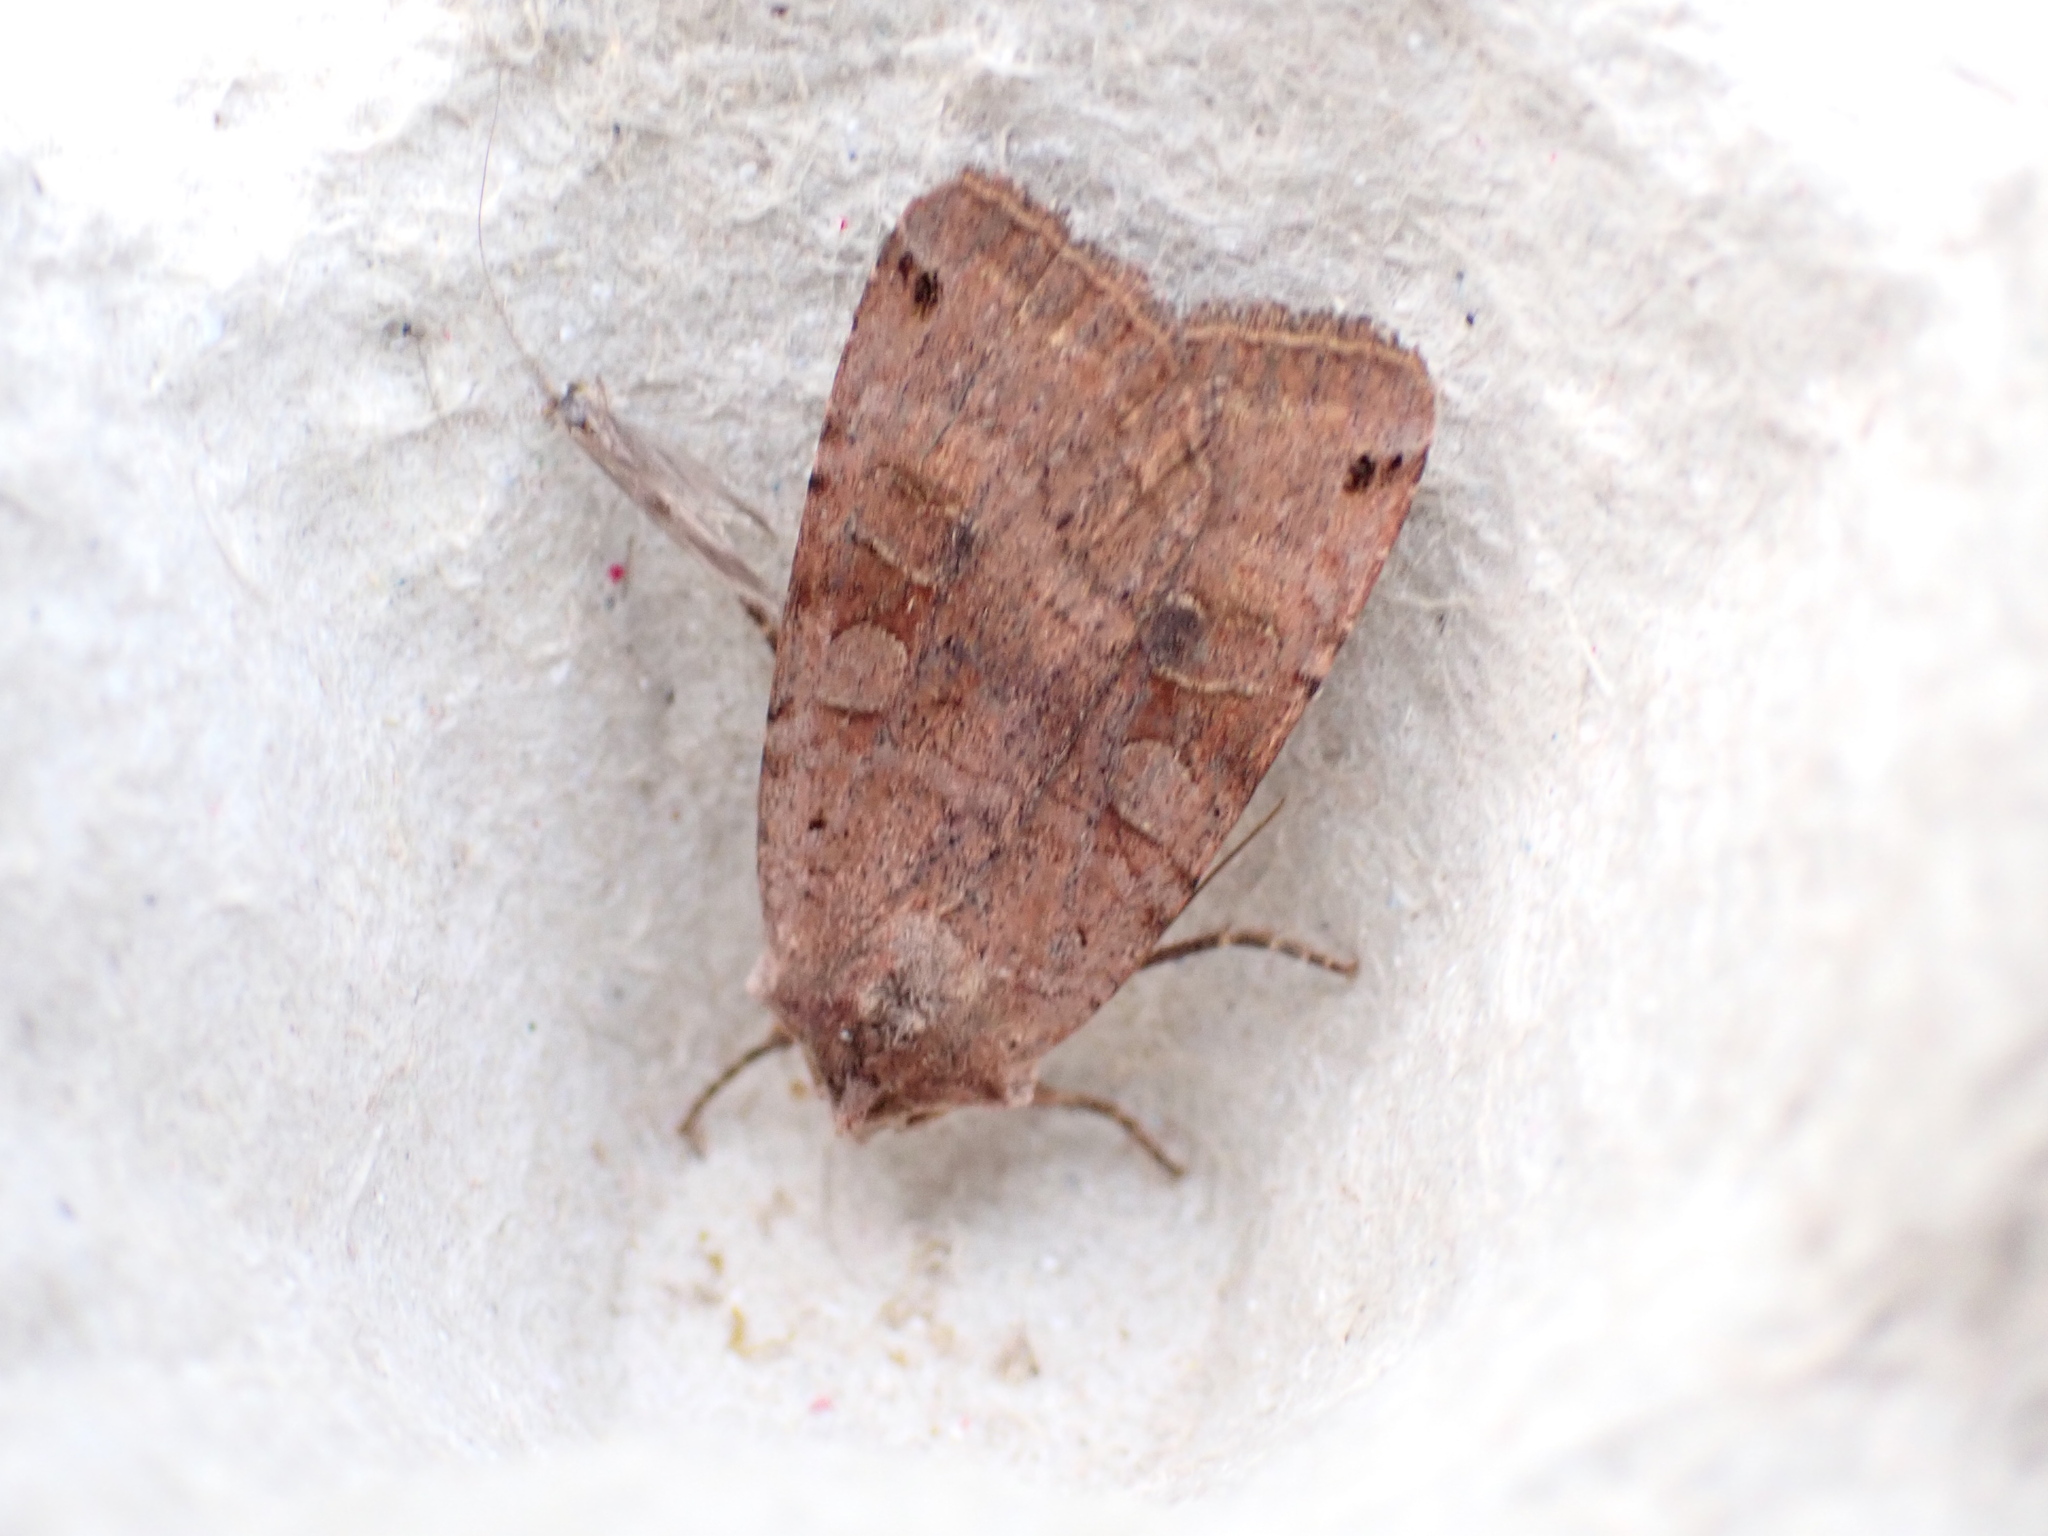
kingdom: Animalia
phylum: Arthropoda
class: Insecta
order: Lepidoptera
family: Noctuidae
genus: Xestia
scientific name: Xestia baja
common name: Dotted clay
